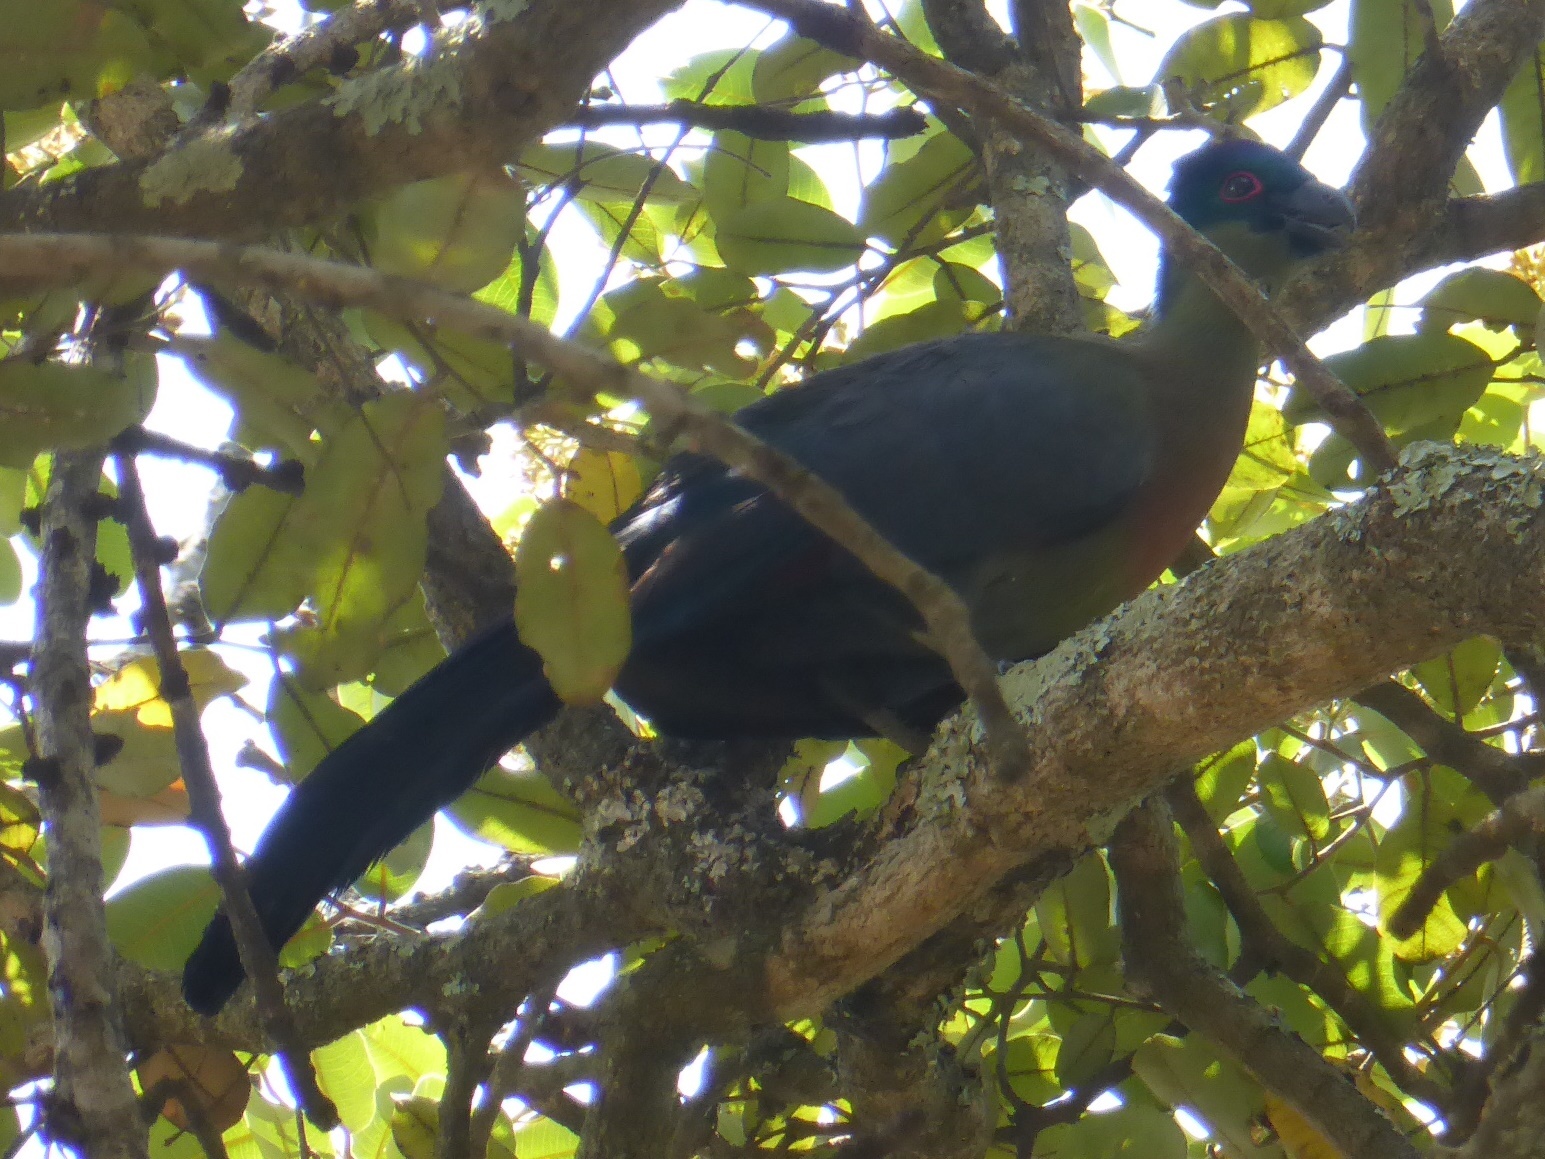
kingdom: Animalia
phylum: Chordata
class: Aves
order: Musophagiformes
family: Musophagidae
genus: Tauraco
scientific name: Tauraco porphyreolophus
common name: Purple-crested turaco
